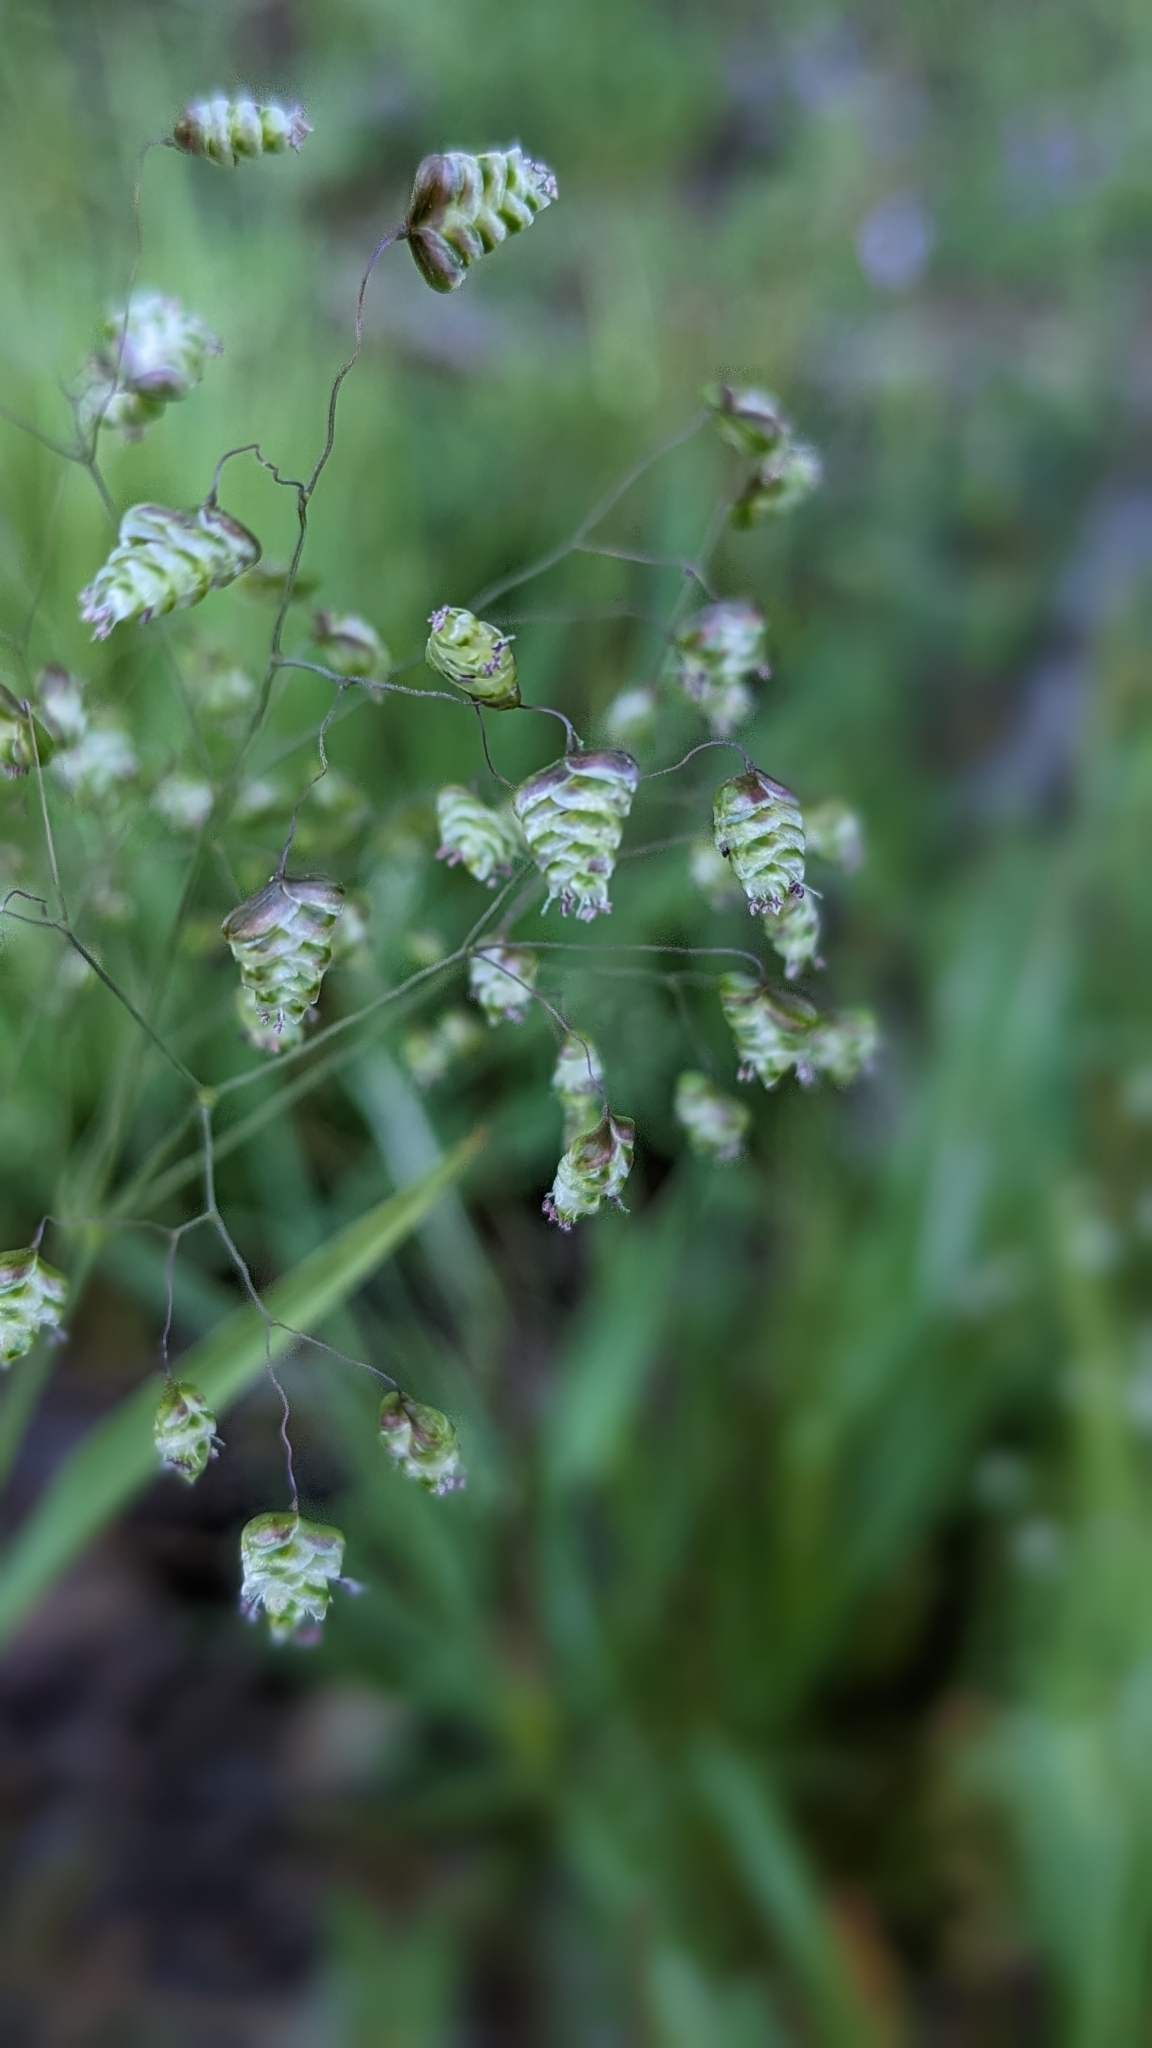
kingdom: Plantae
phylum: Tracheophyta
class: Liliopsida
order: Poales
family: Poaceae
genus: Briza
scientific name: Briza minor
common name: Lesser quaking-grass
